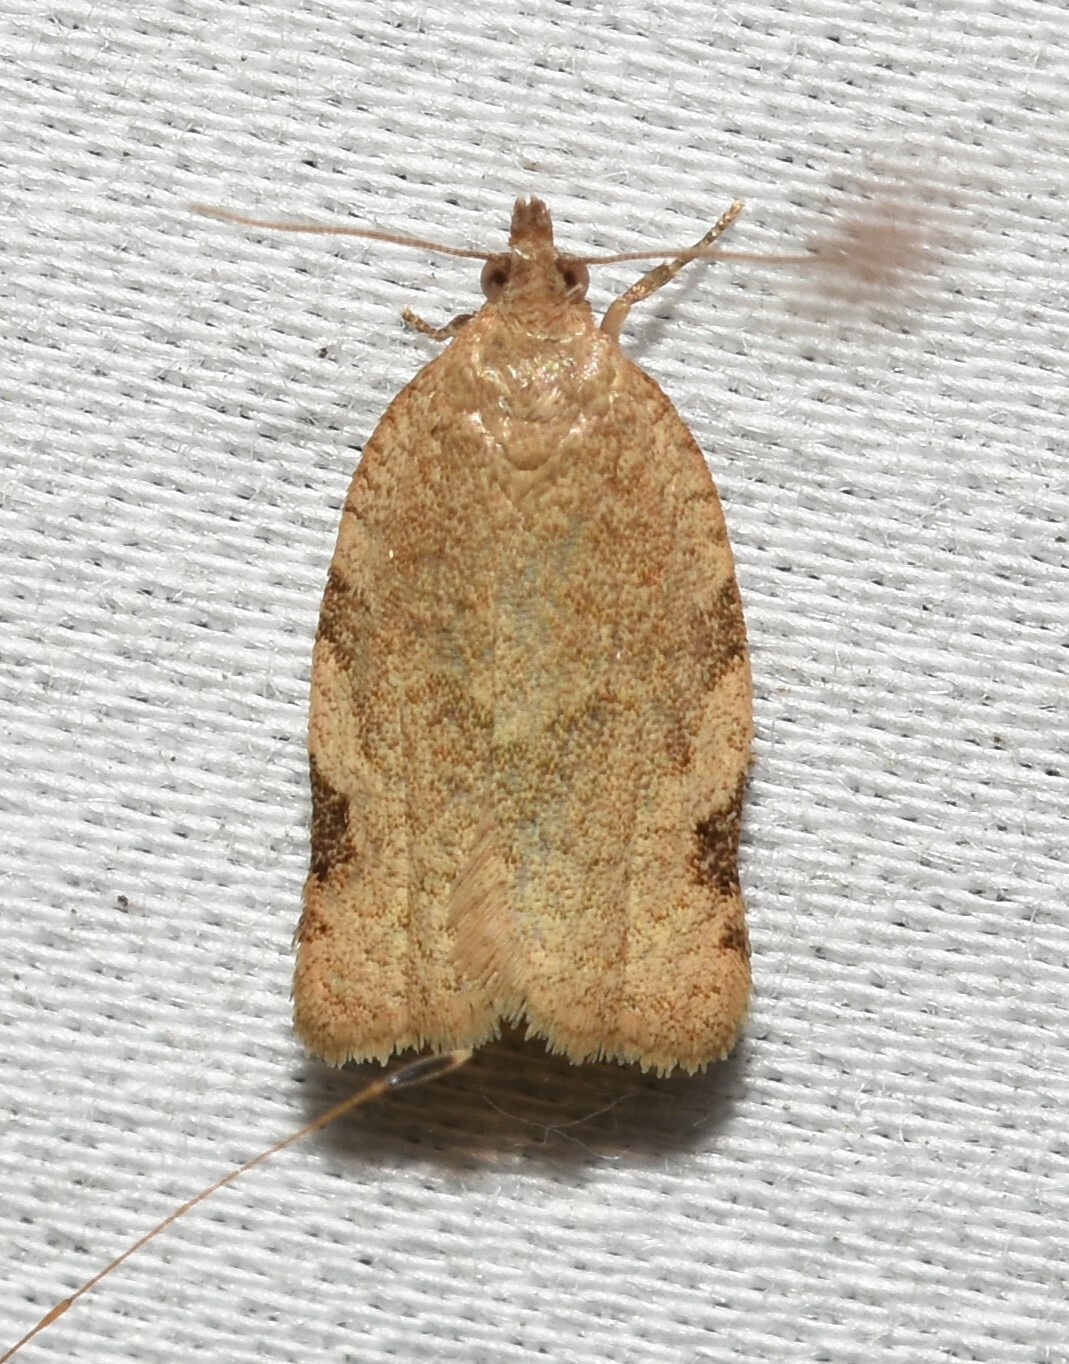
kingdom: Animalia
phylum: Arthropoda
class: Insecta
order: Lepidoptera
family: Tortricidae
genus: Clepsis
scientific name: Clepsis virescana
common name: Greenish apple moth
